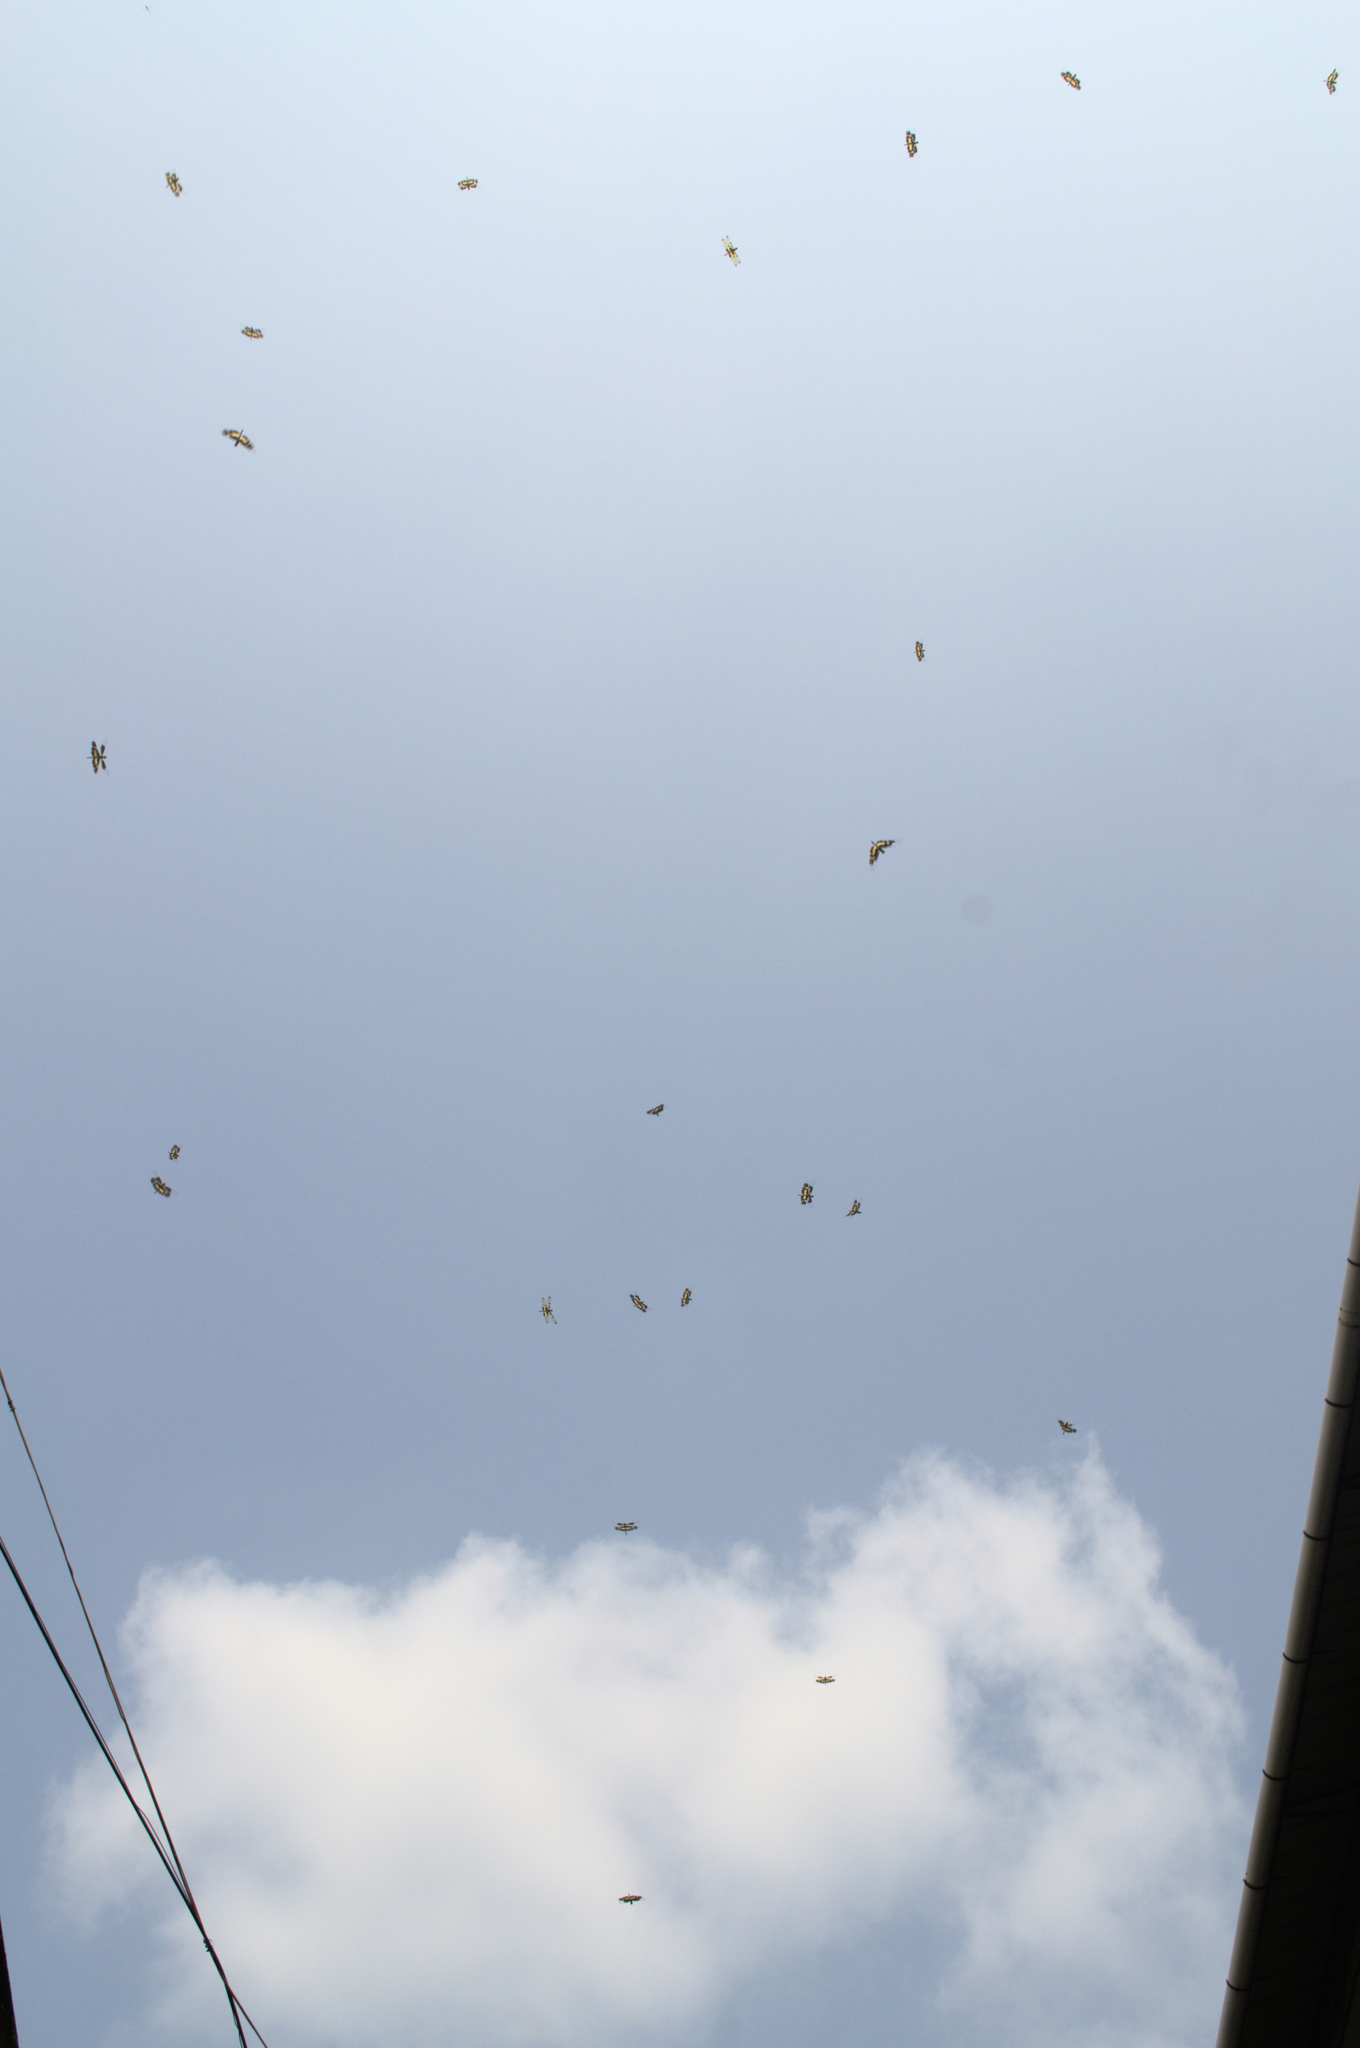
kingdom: Animalia
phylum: Arthropoda
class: Insecta
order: Odonata
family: Libellulidae
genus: Rhyothemis
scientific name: Rhyothemis variegata
